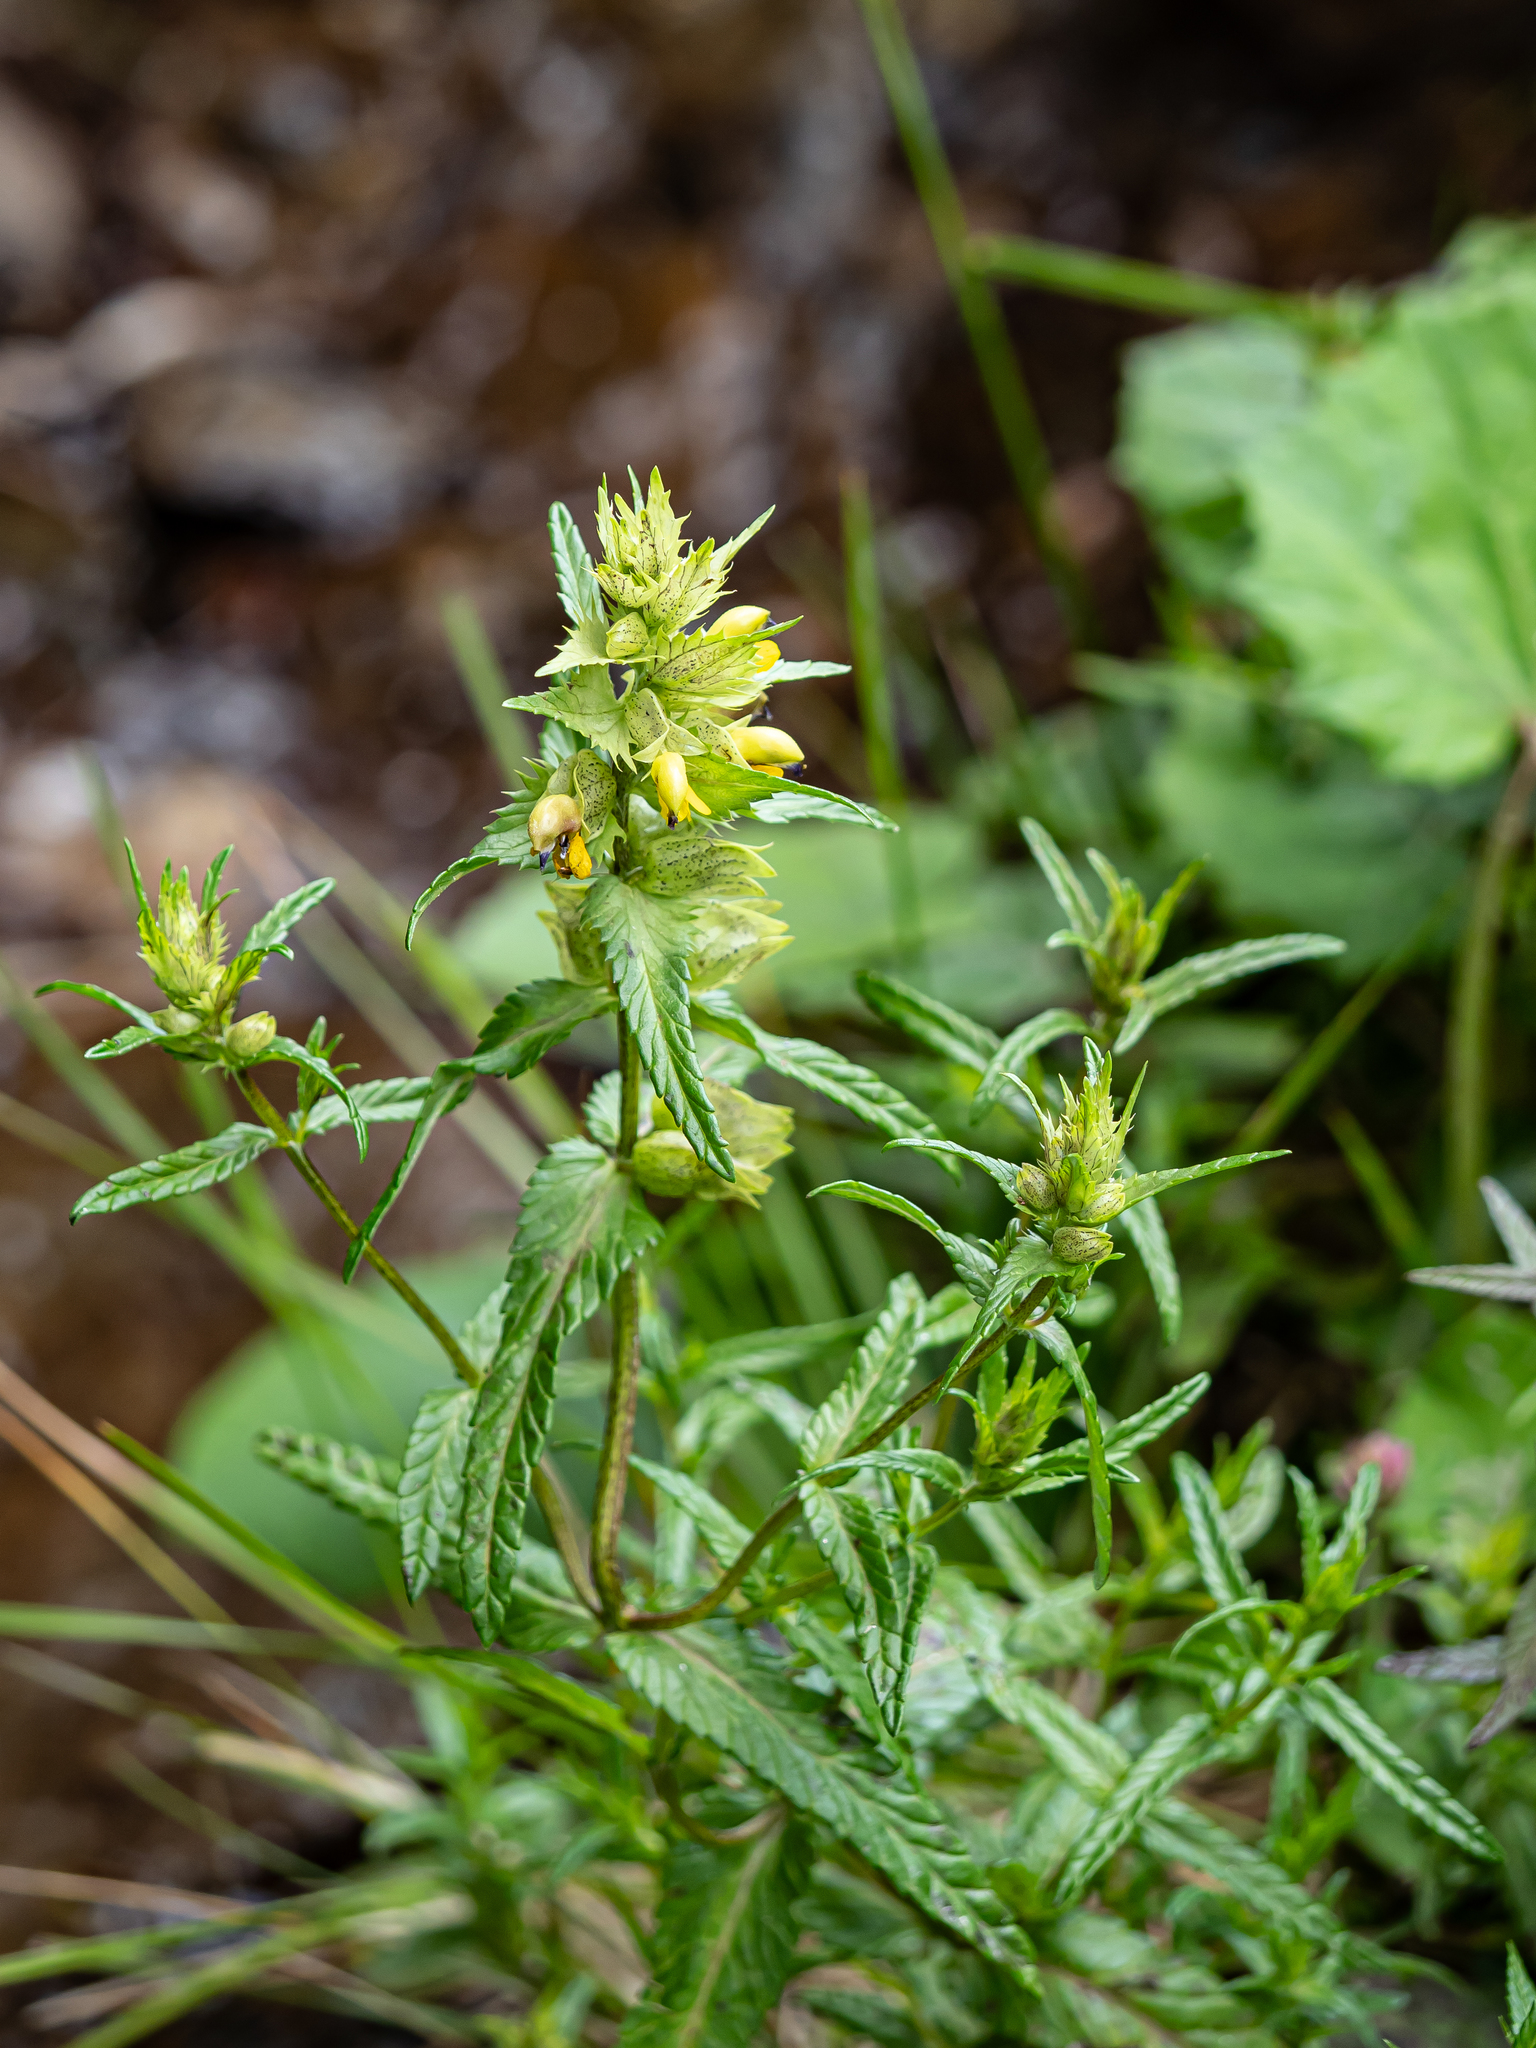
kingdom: Plantae
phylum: Tracheophyta
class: Magnoliopsida
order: Lamiales
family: Orobanchaceae
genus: Rhinanthus
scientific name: Rhinanthus riphaeus
